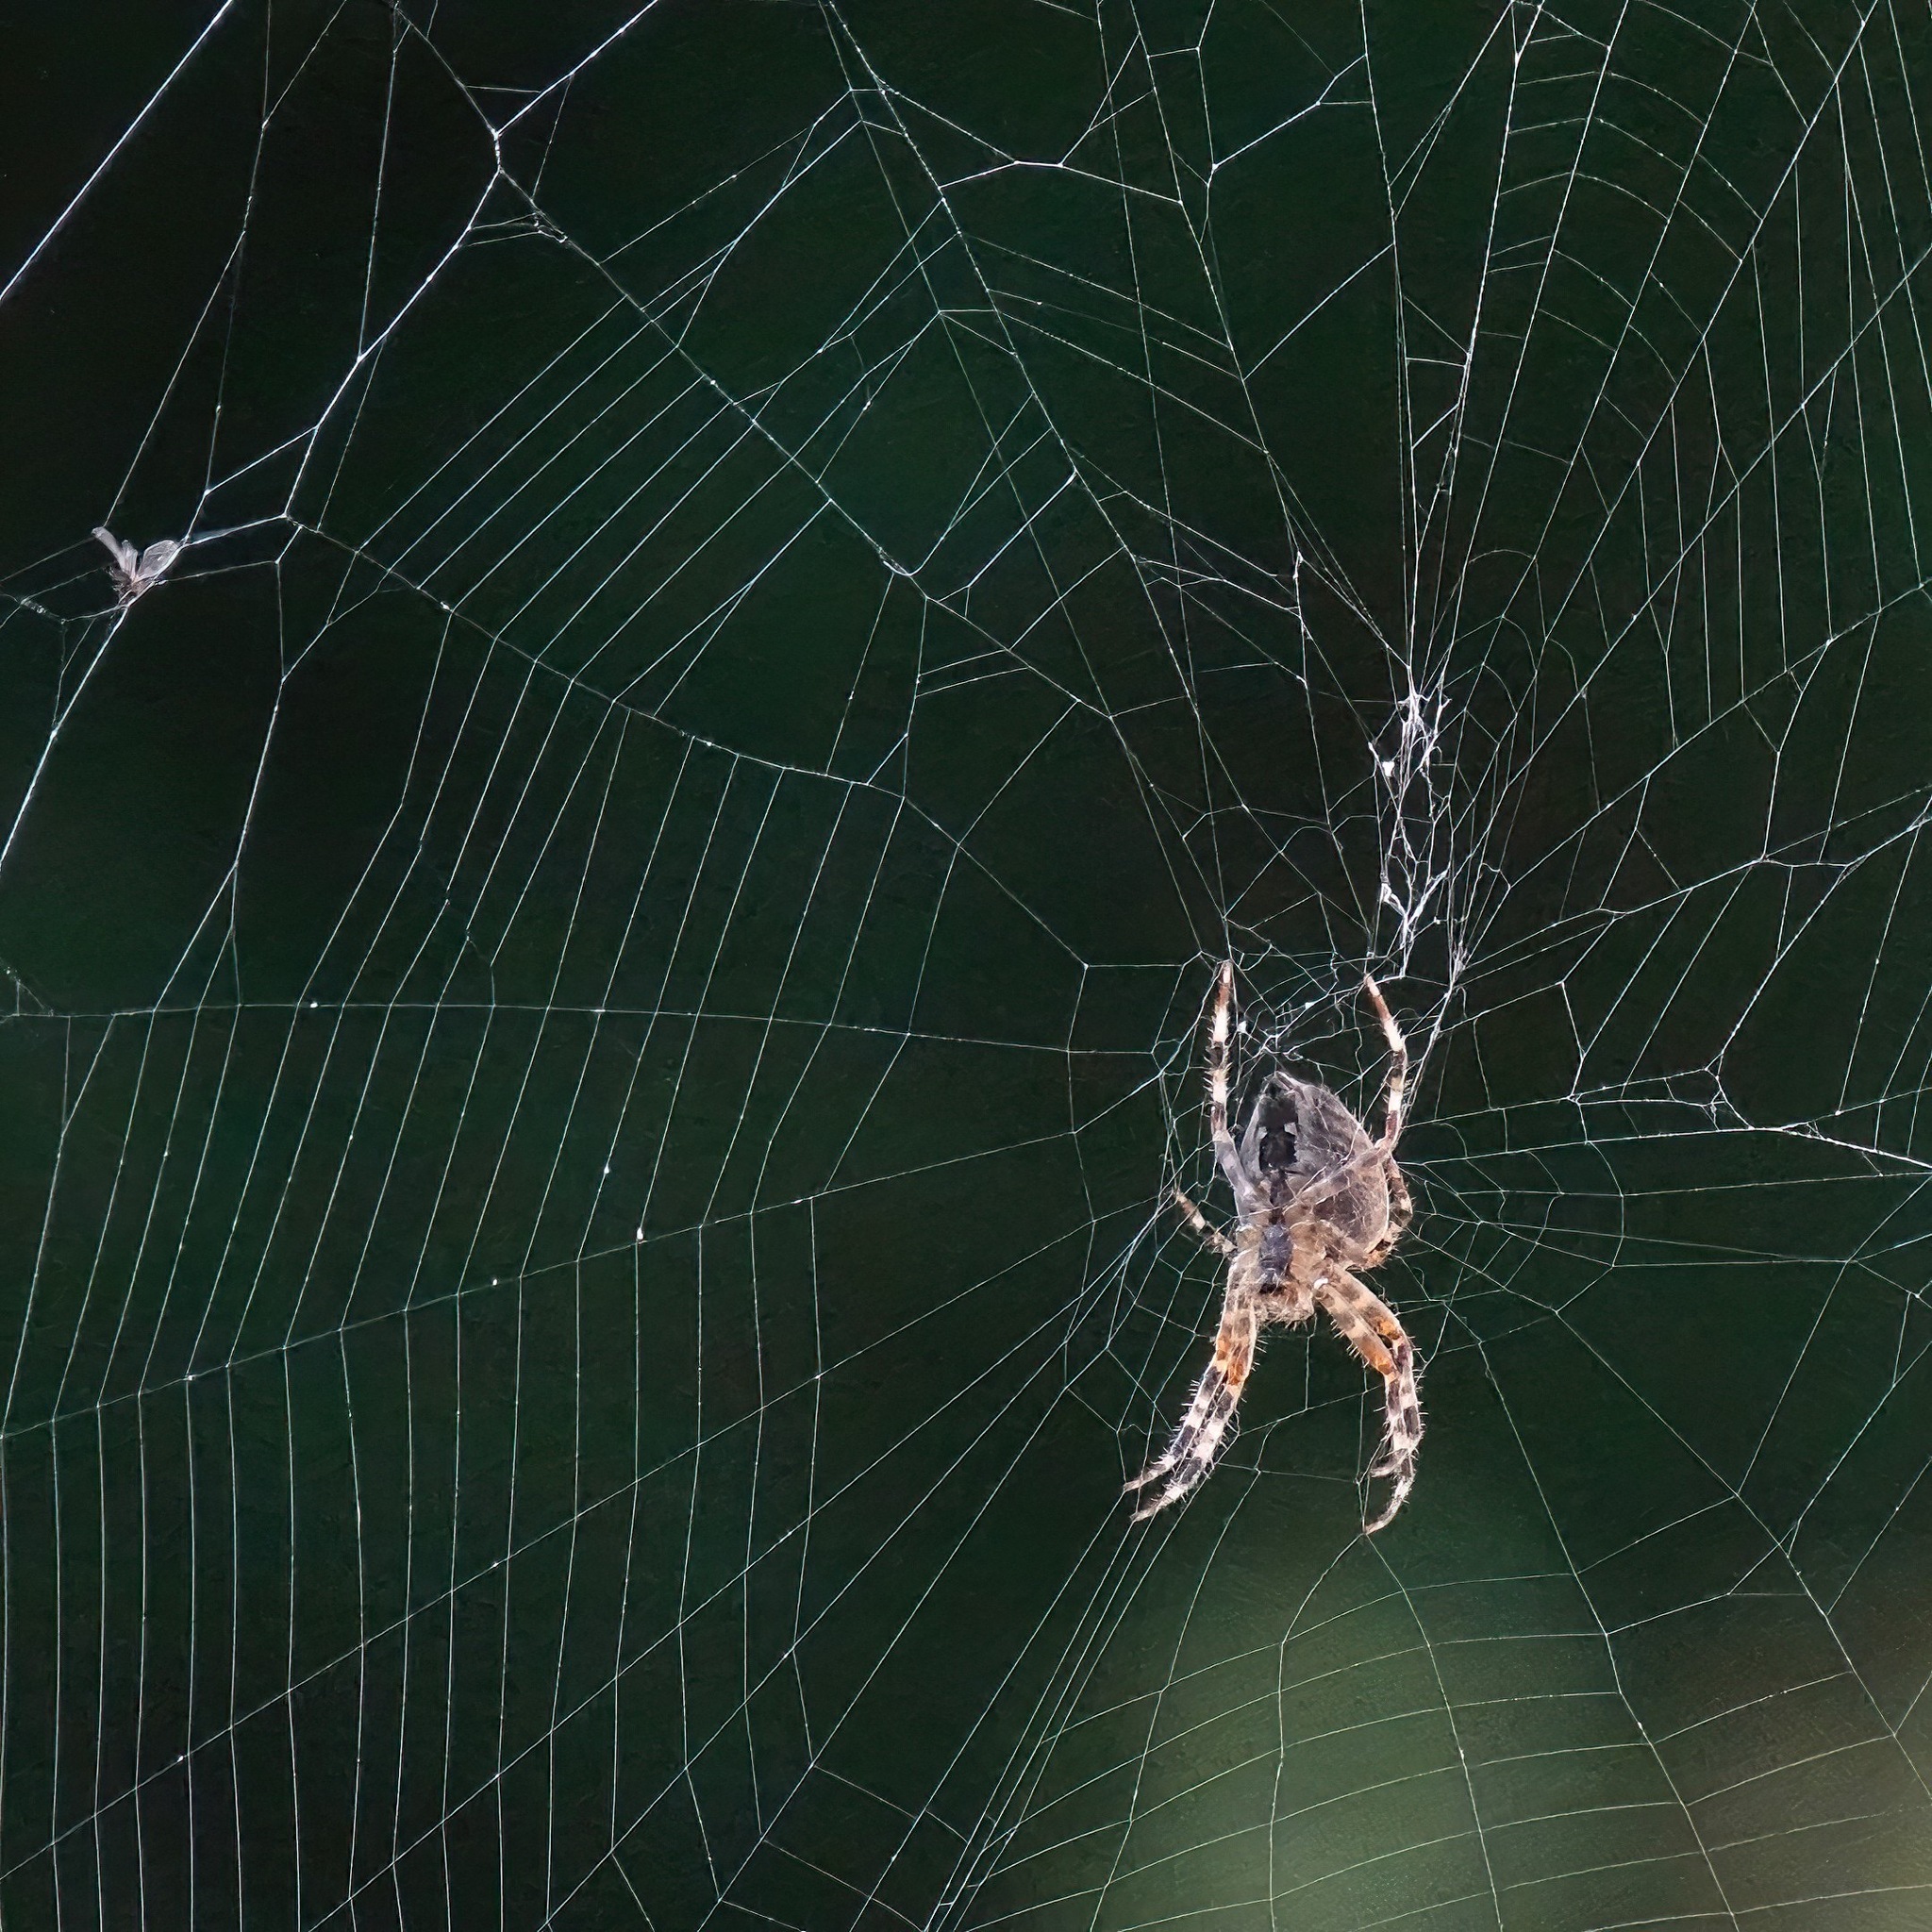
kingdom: Animalia
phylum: Arthropoda
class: Arachnida
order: Araneae
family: Araneidae
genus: Araneus
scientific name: Araneus diadematus
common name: Cross orbweaver
